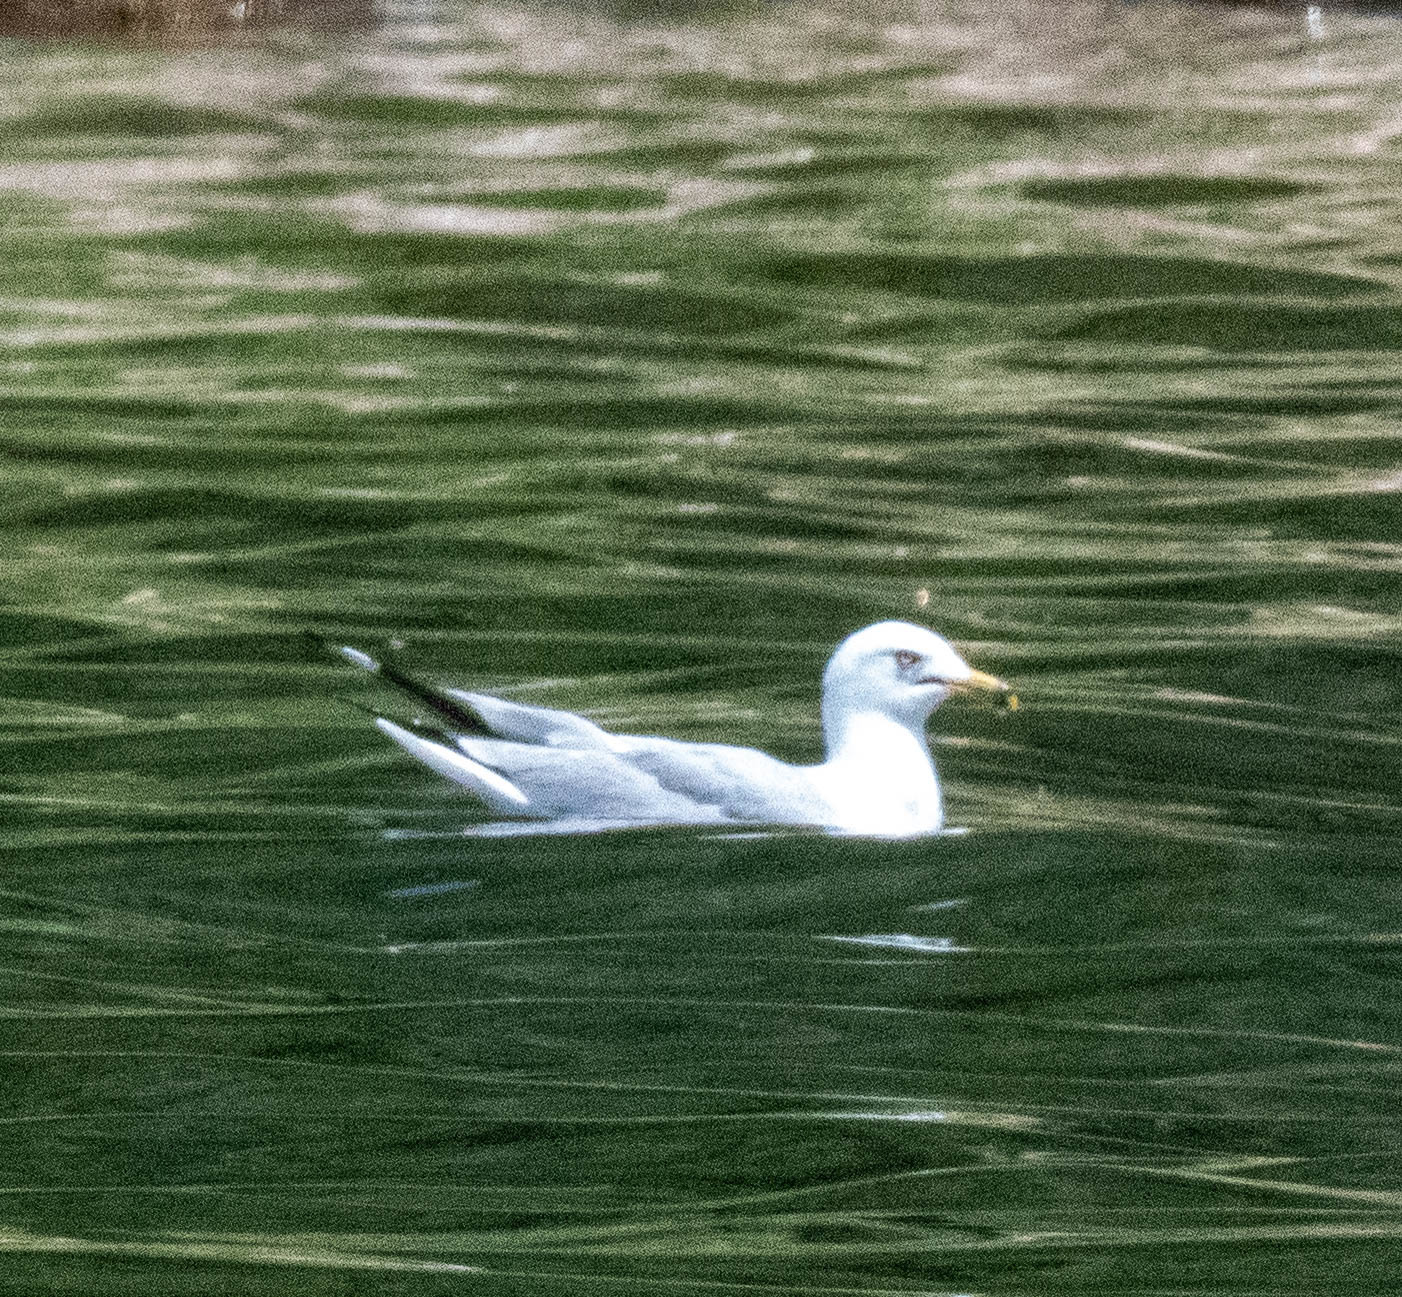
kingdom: Animalia
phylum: Chordata
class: Aves
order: Charadriiformes
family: Laridae
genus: Larus
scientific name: Larus delawarensis
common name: Ring-billed gull
